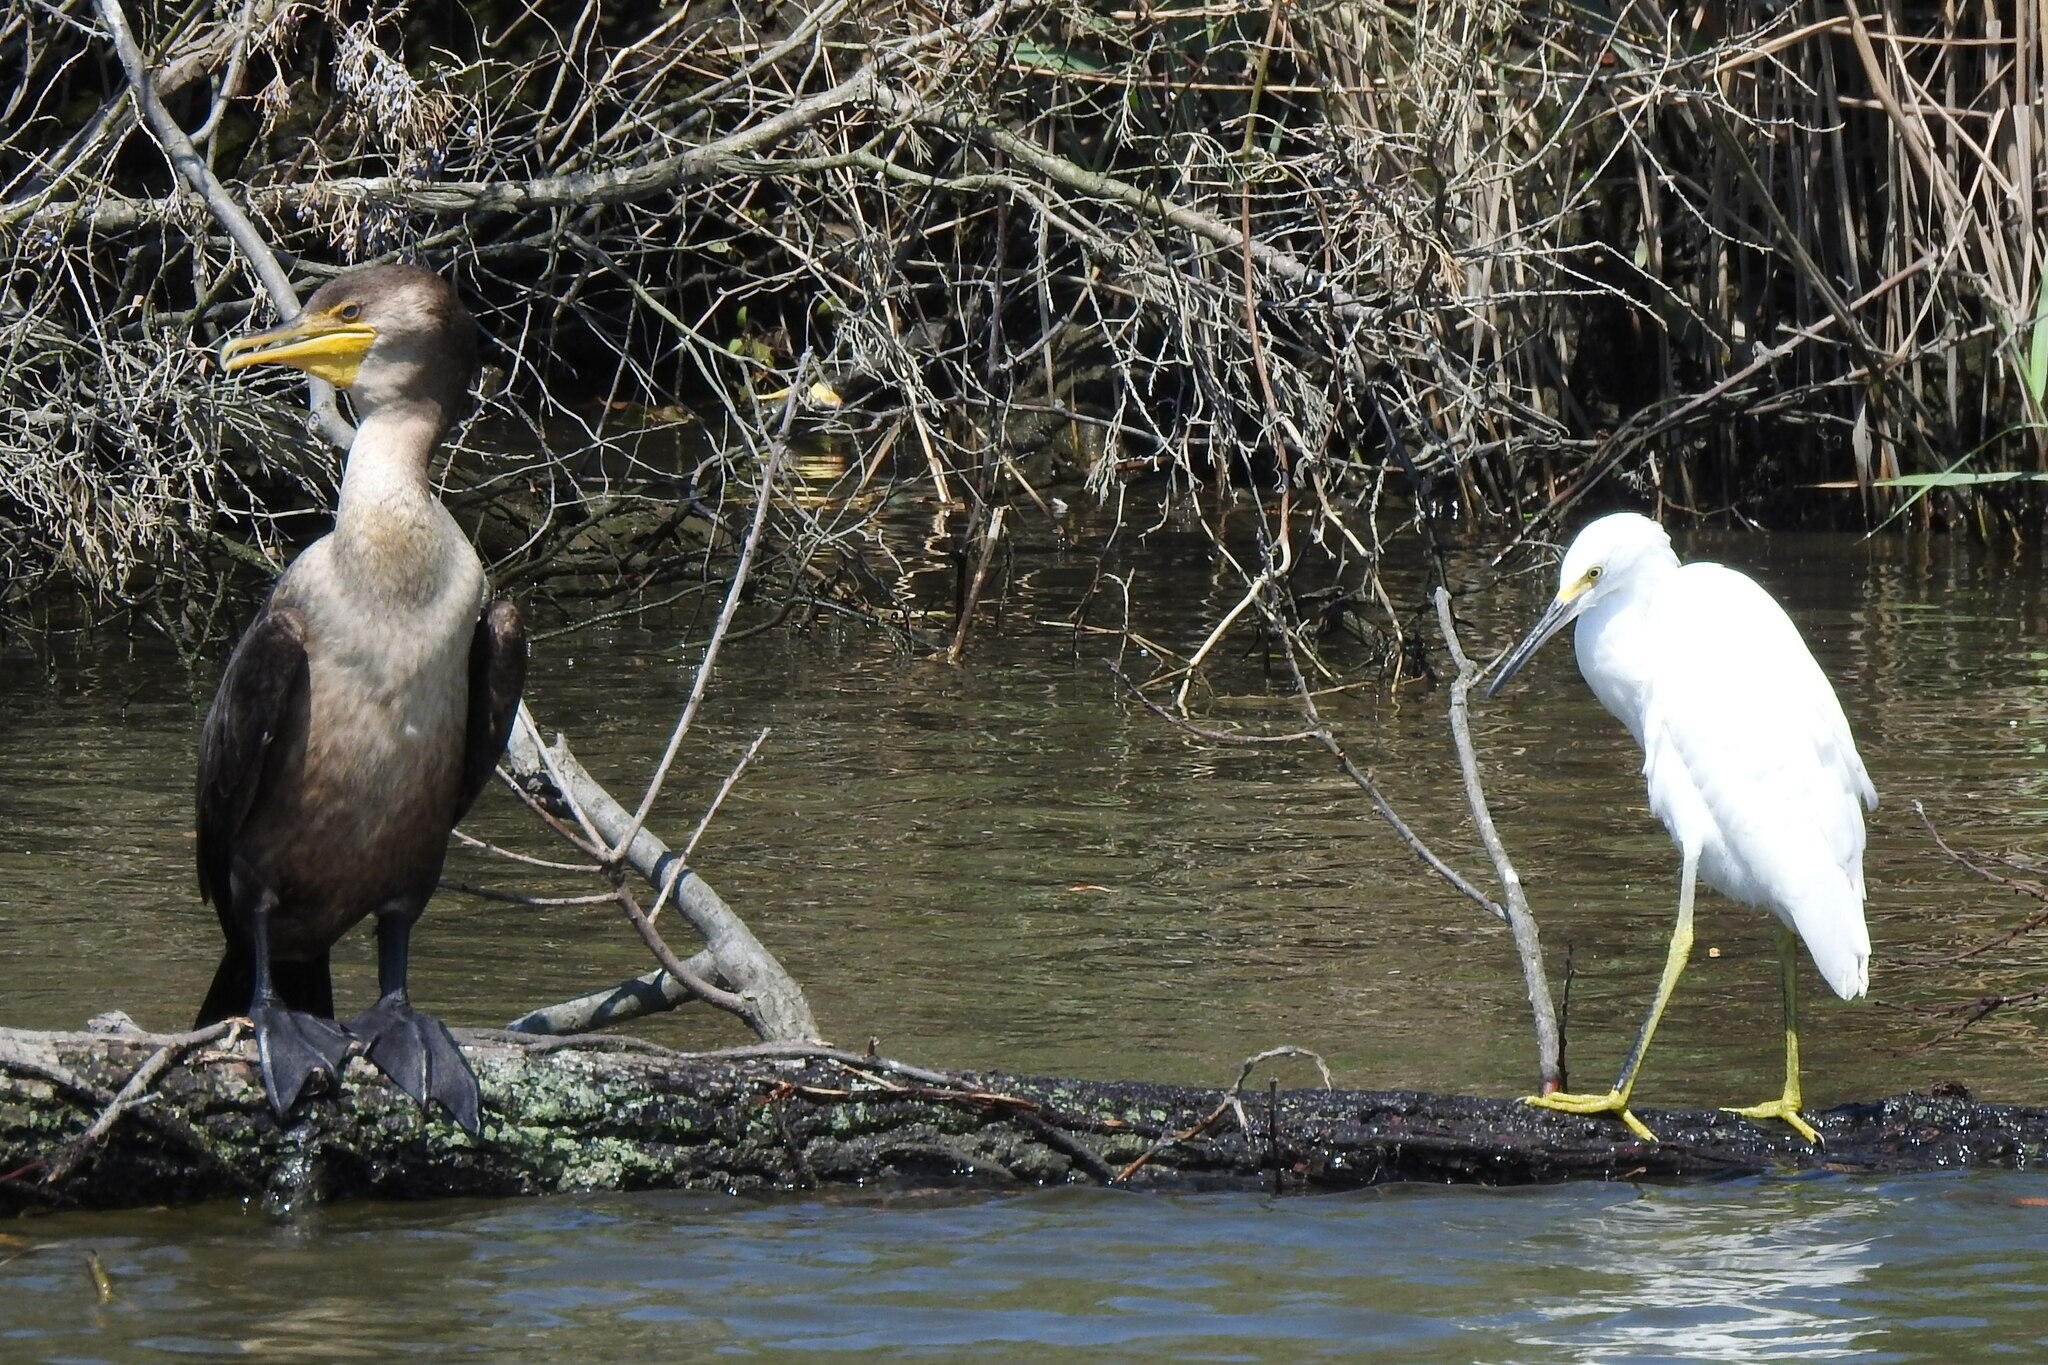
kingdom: Animalia
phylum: Chordata
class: Aves
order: Suliformes
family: Phalacrocoracidae
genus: Phalacrocorax
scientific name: Phalacrocorax auritus
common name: Double-crested cormorant
